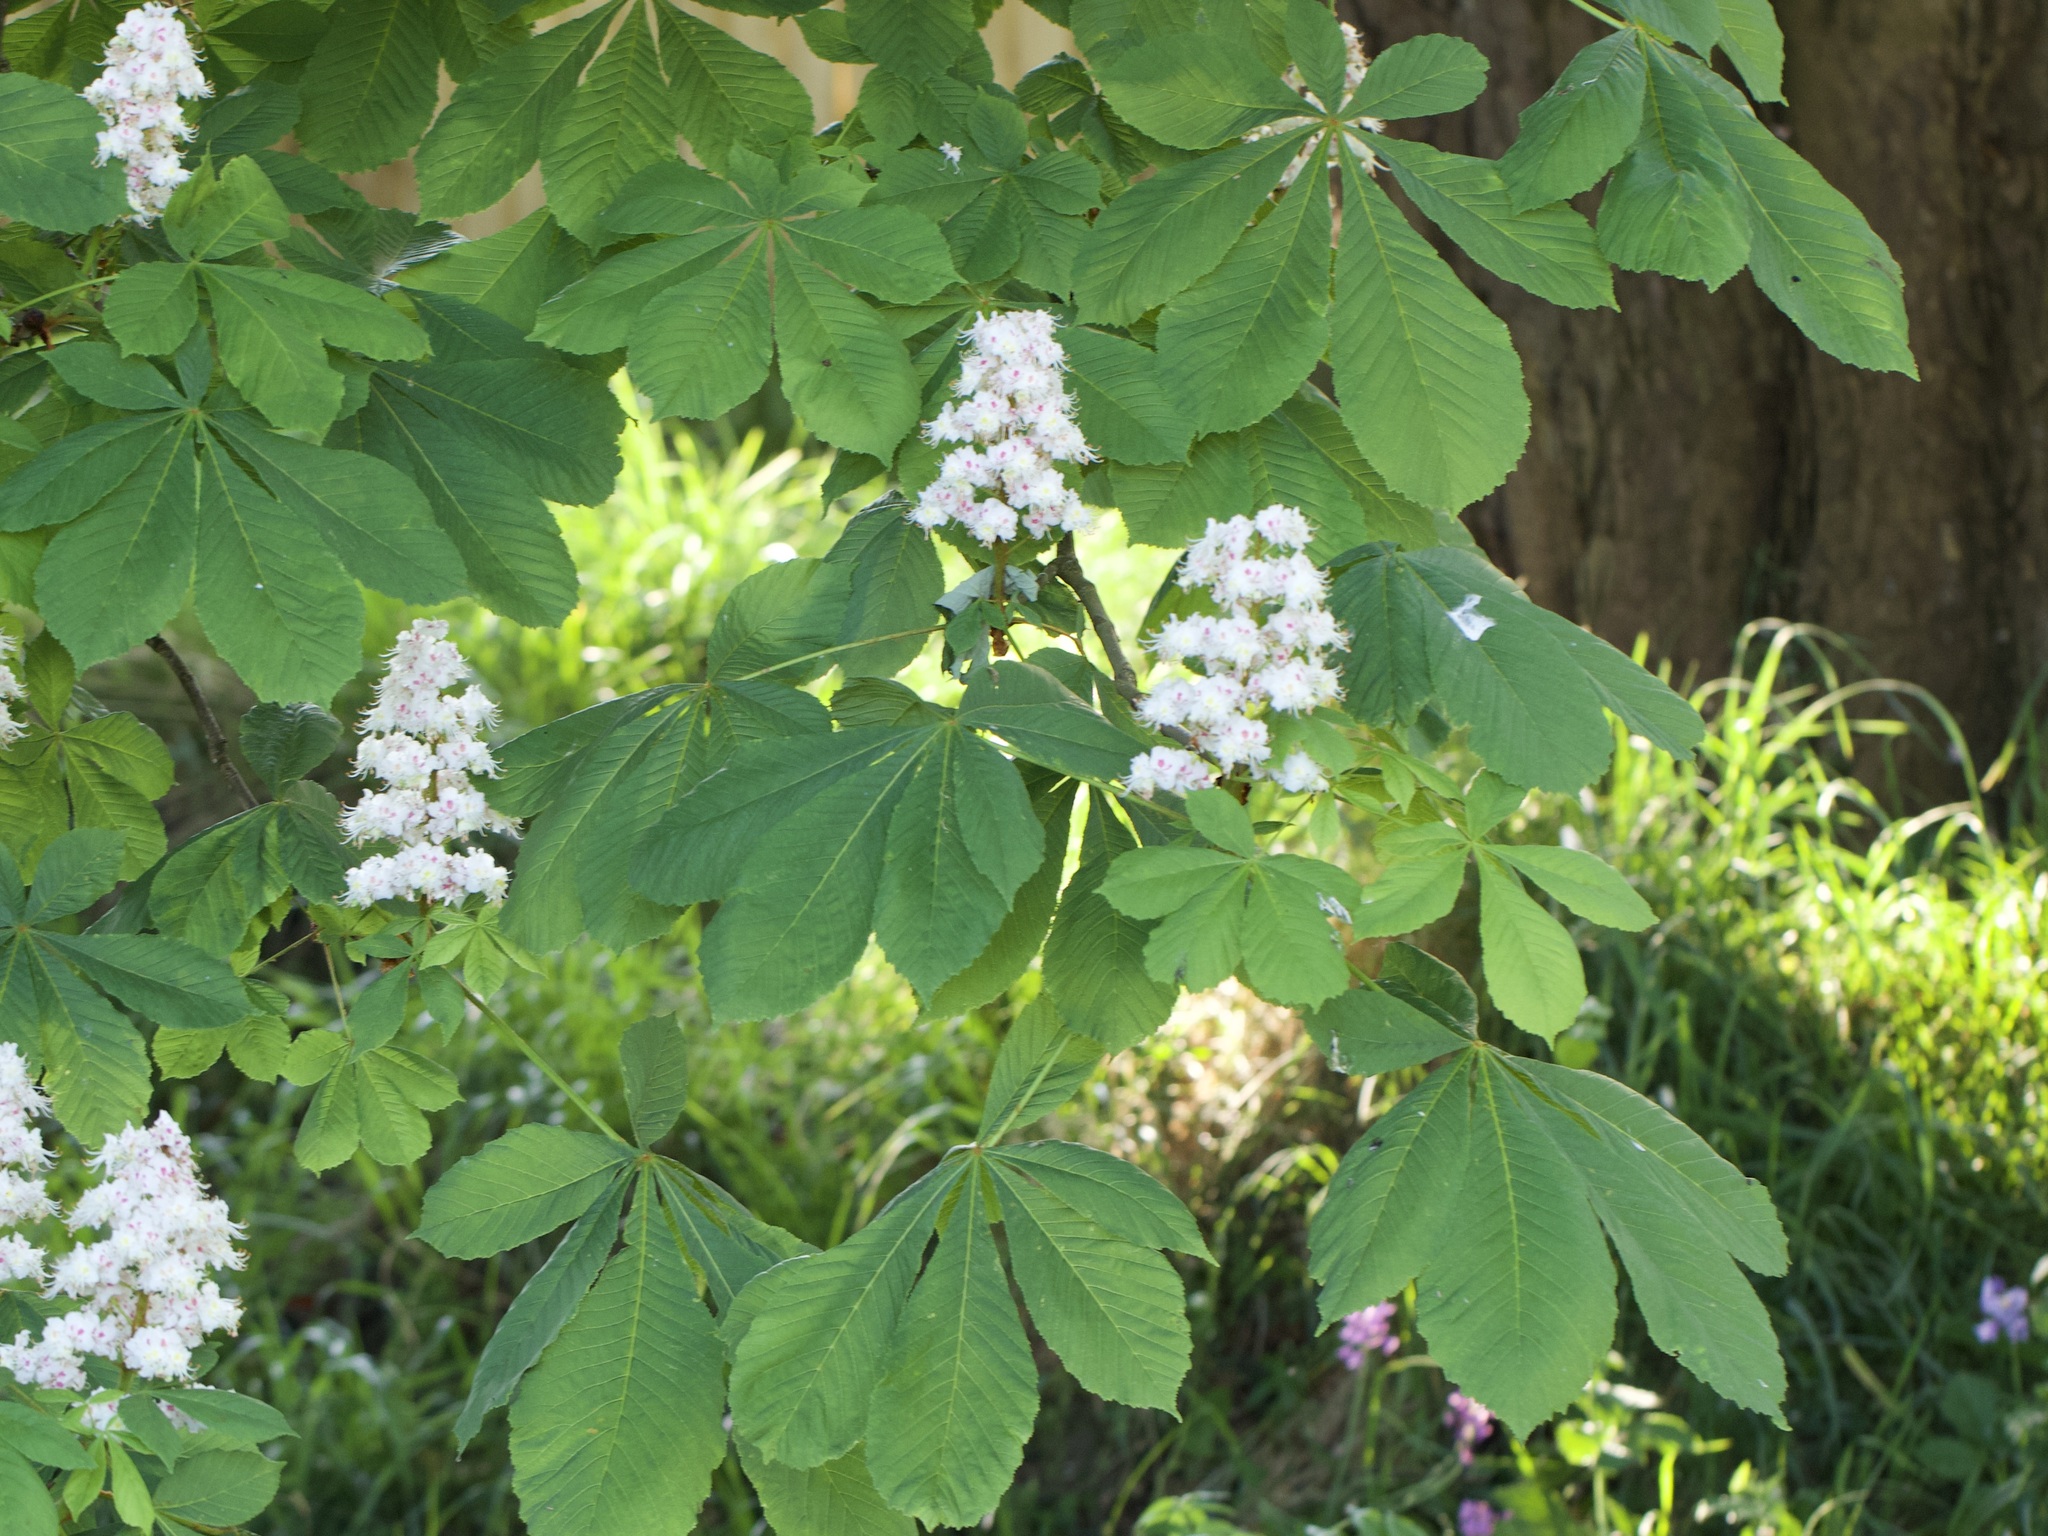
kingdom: Plantae
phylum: Tracheophyta
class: Magnoliopsida
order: Sapindales
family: Sapindaceae
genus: Aesculus
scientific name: Aesculus hippocastanum
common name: Horse-chestnut
